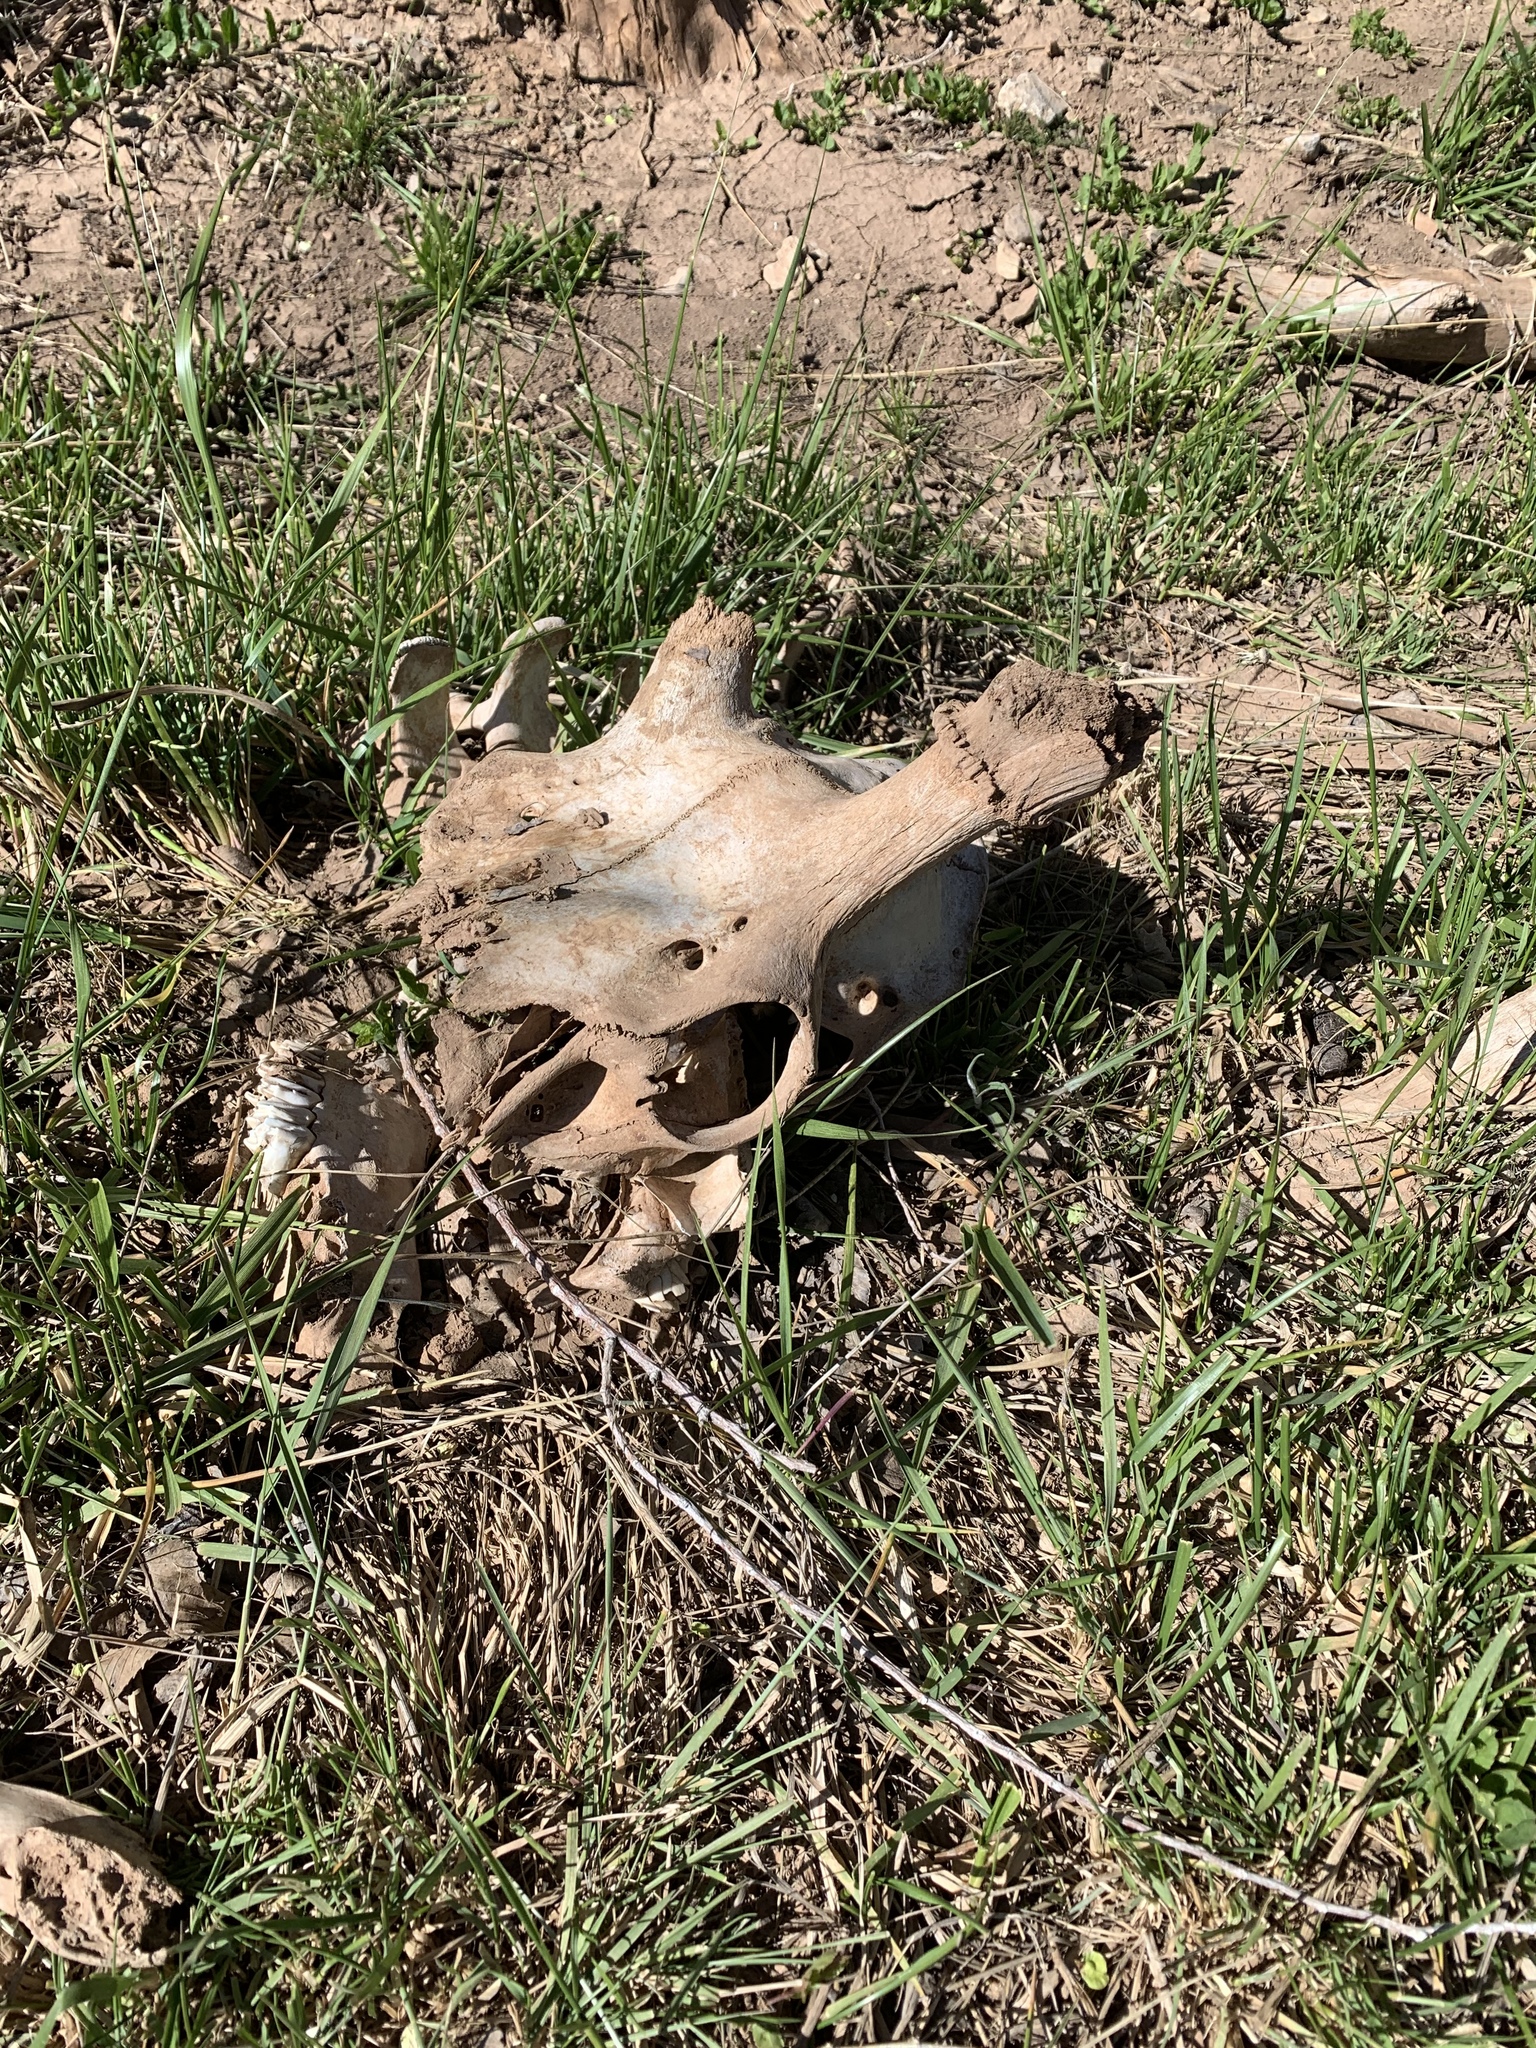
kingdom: Animalia
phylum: Chordata
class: Mammalia
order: Artiodactyla
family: Cervidae
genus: Cervus
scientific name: Cervus elaphus
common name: Red deer
